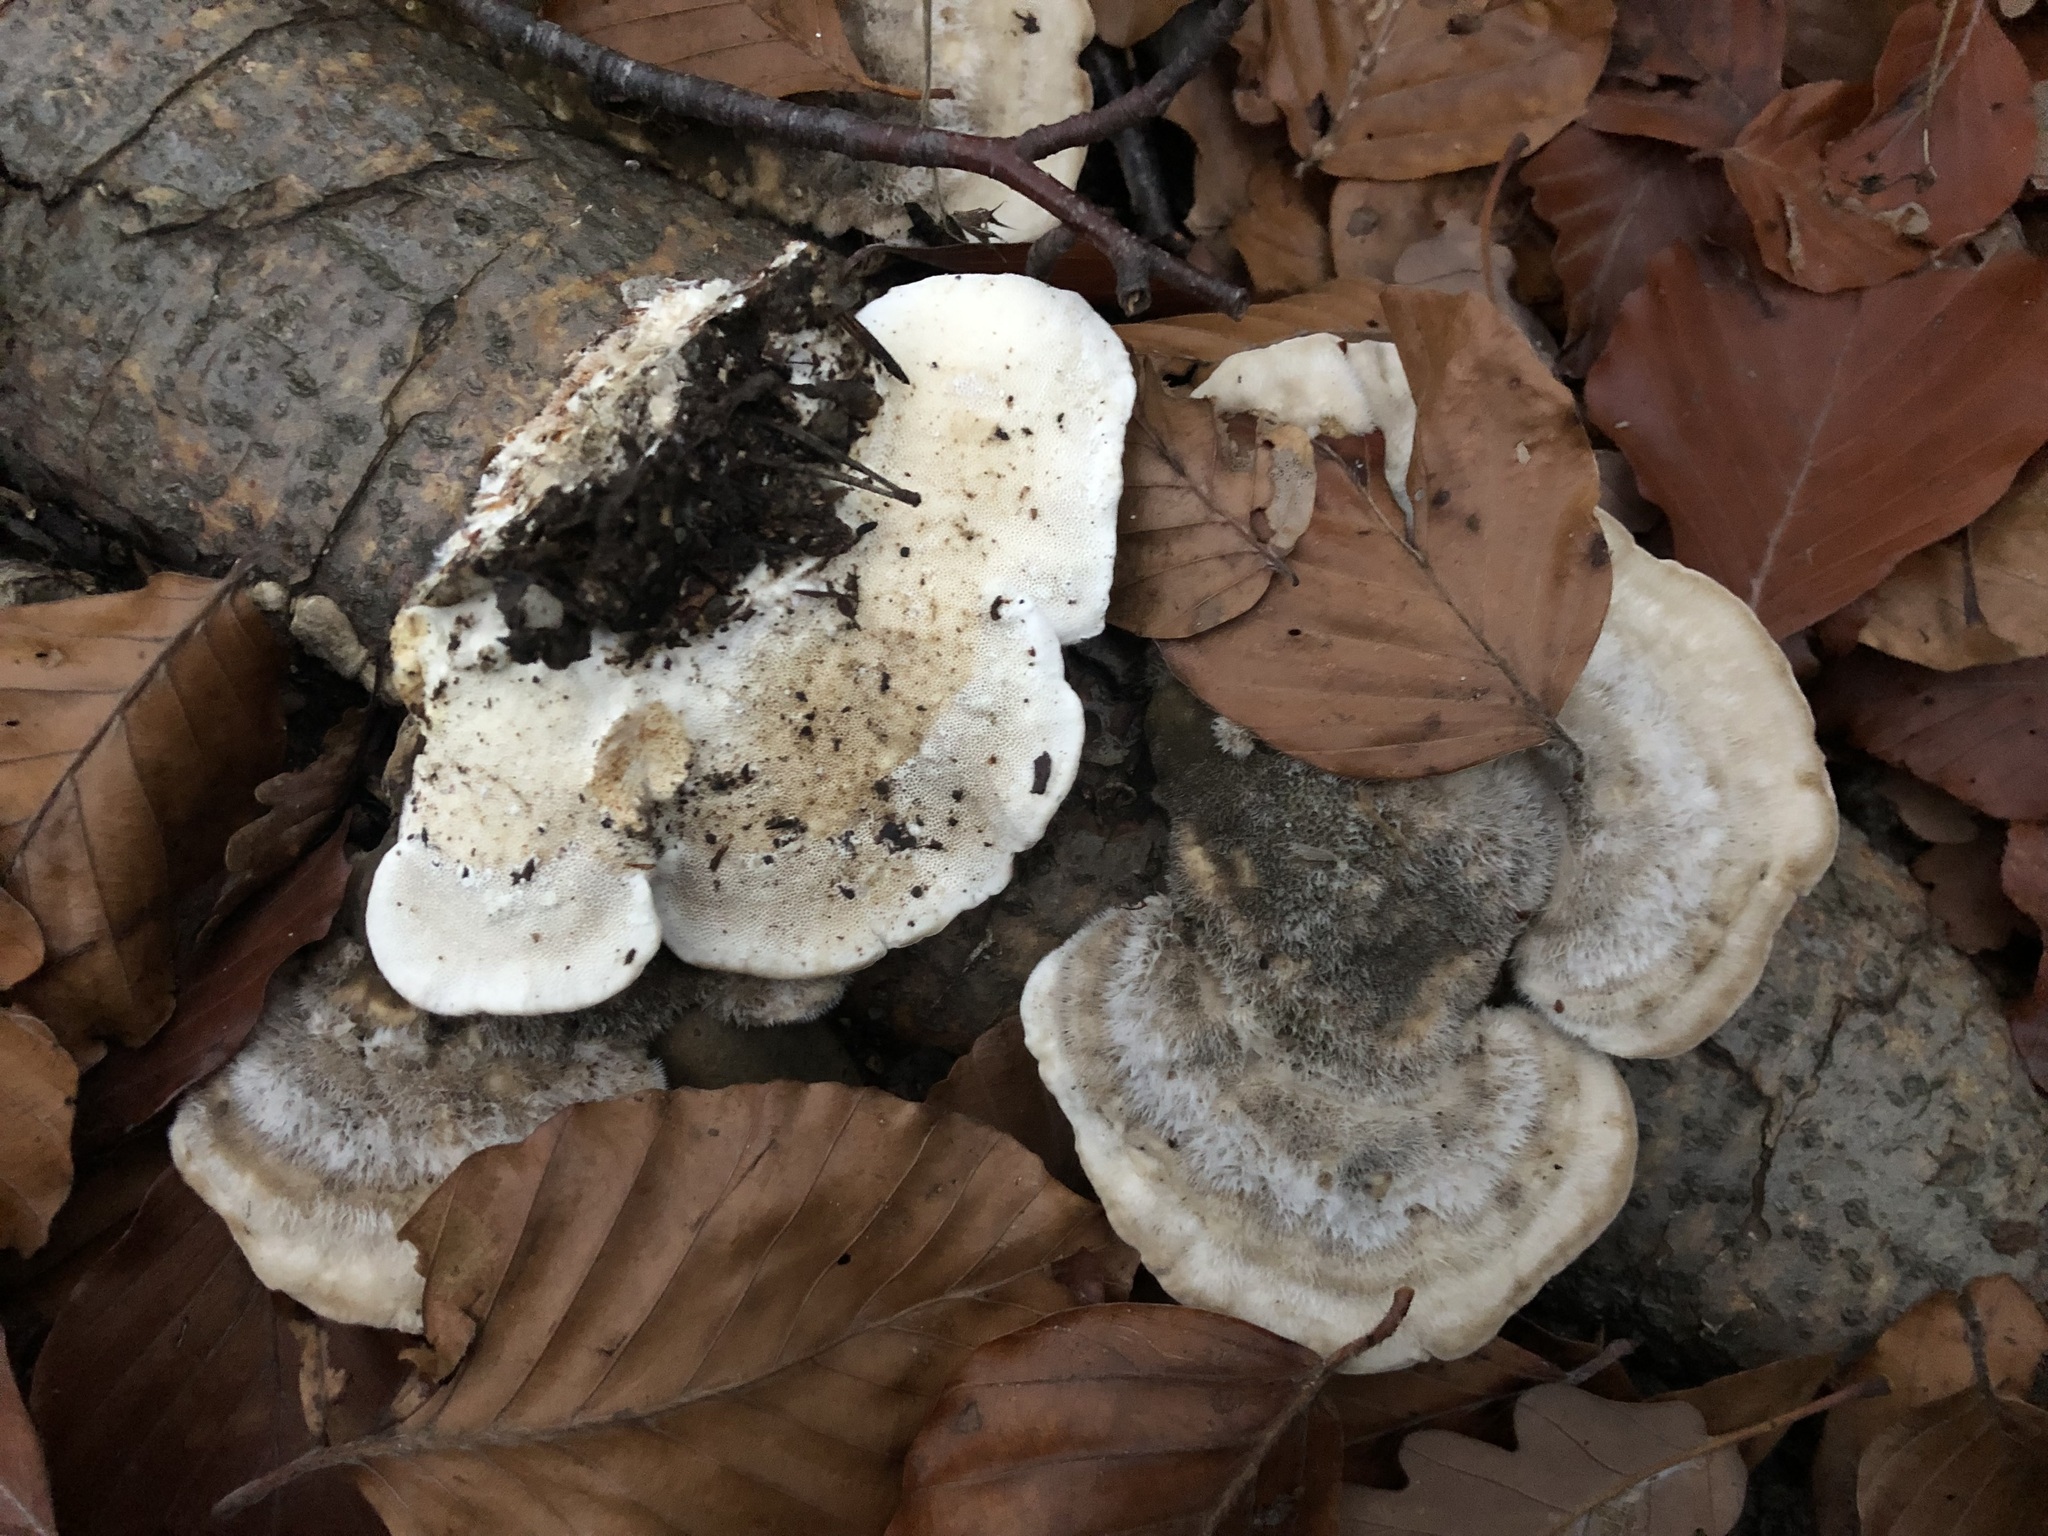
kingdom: Fungi
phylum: Basidiomycota
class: Agaricomycetes
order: Polyporales
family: Polyporaceae
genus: Trametes
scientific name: Trametes hirsuta
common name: Hairy bracket
